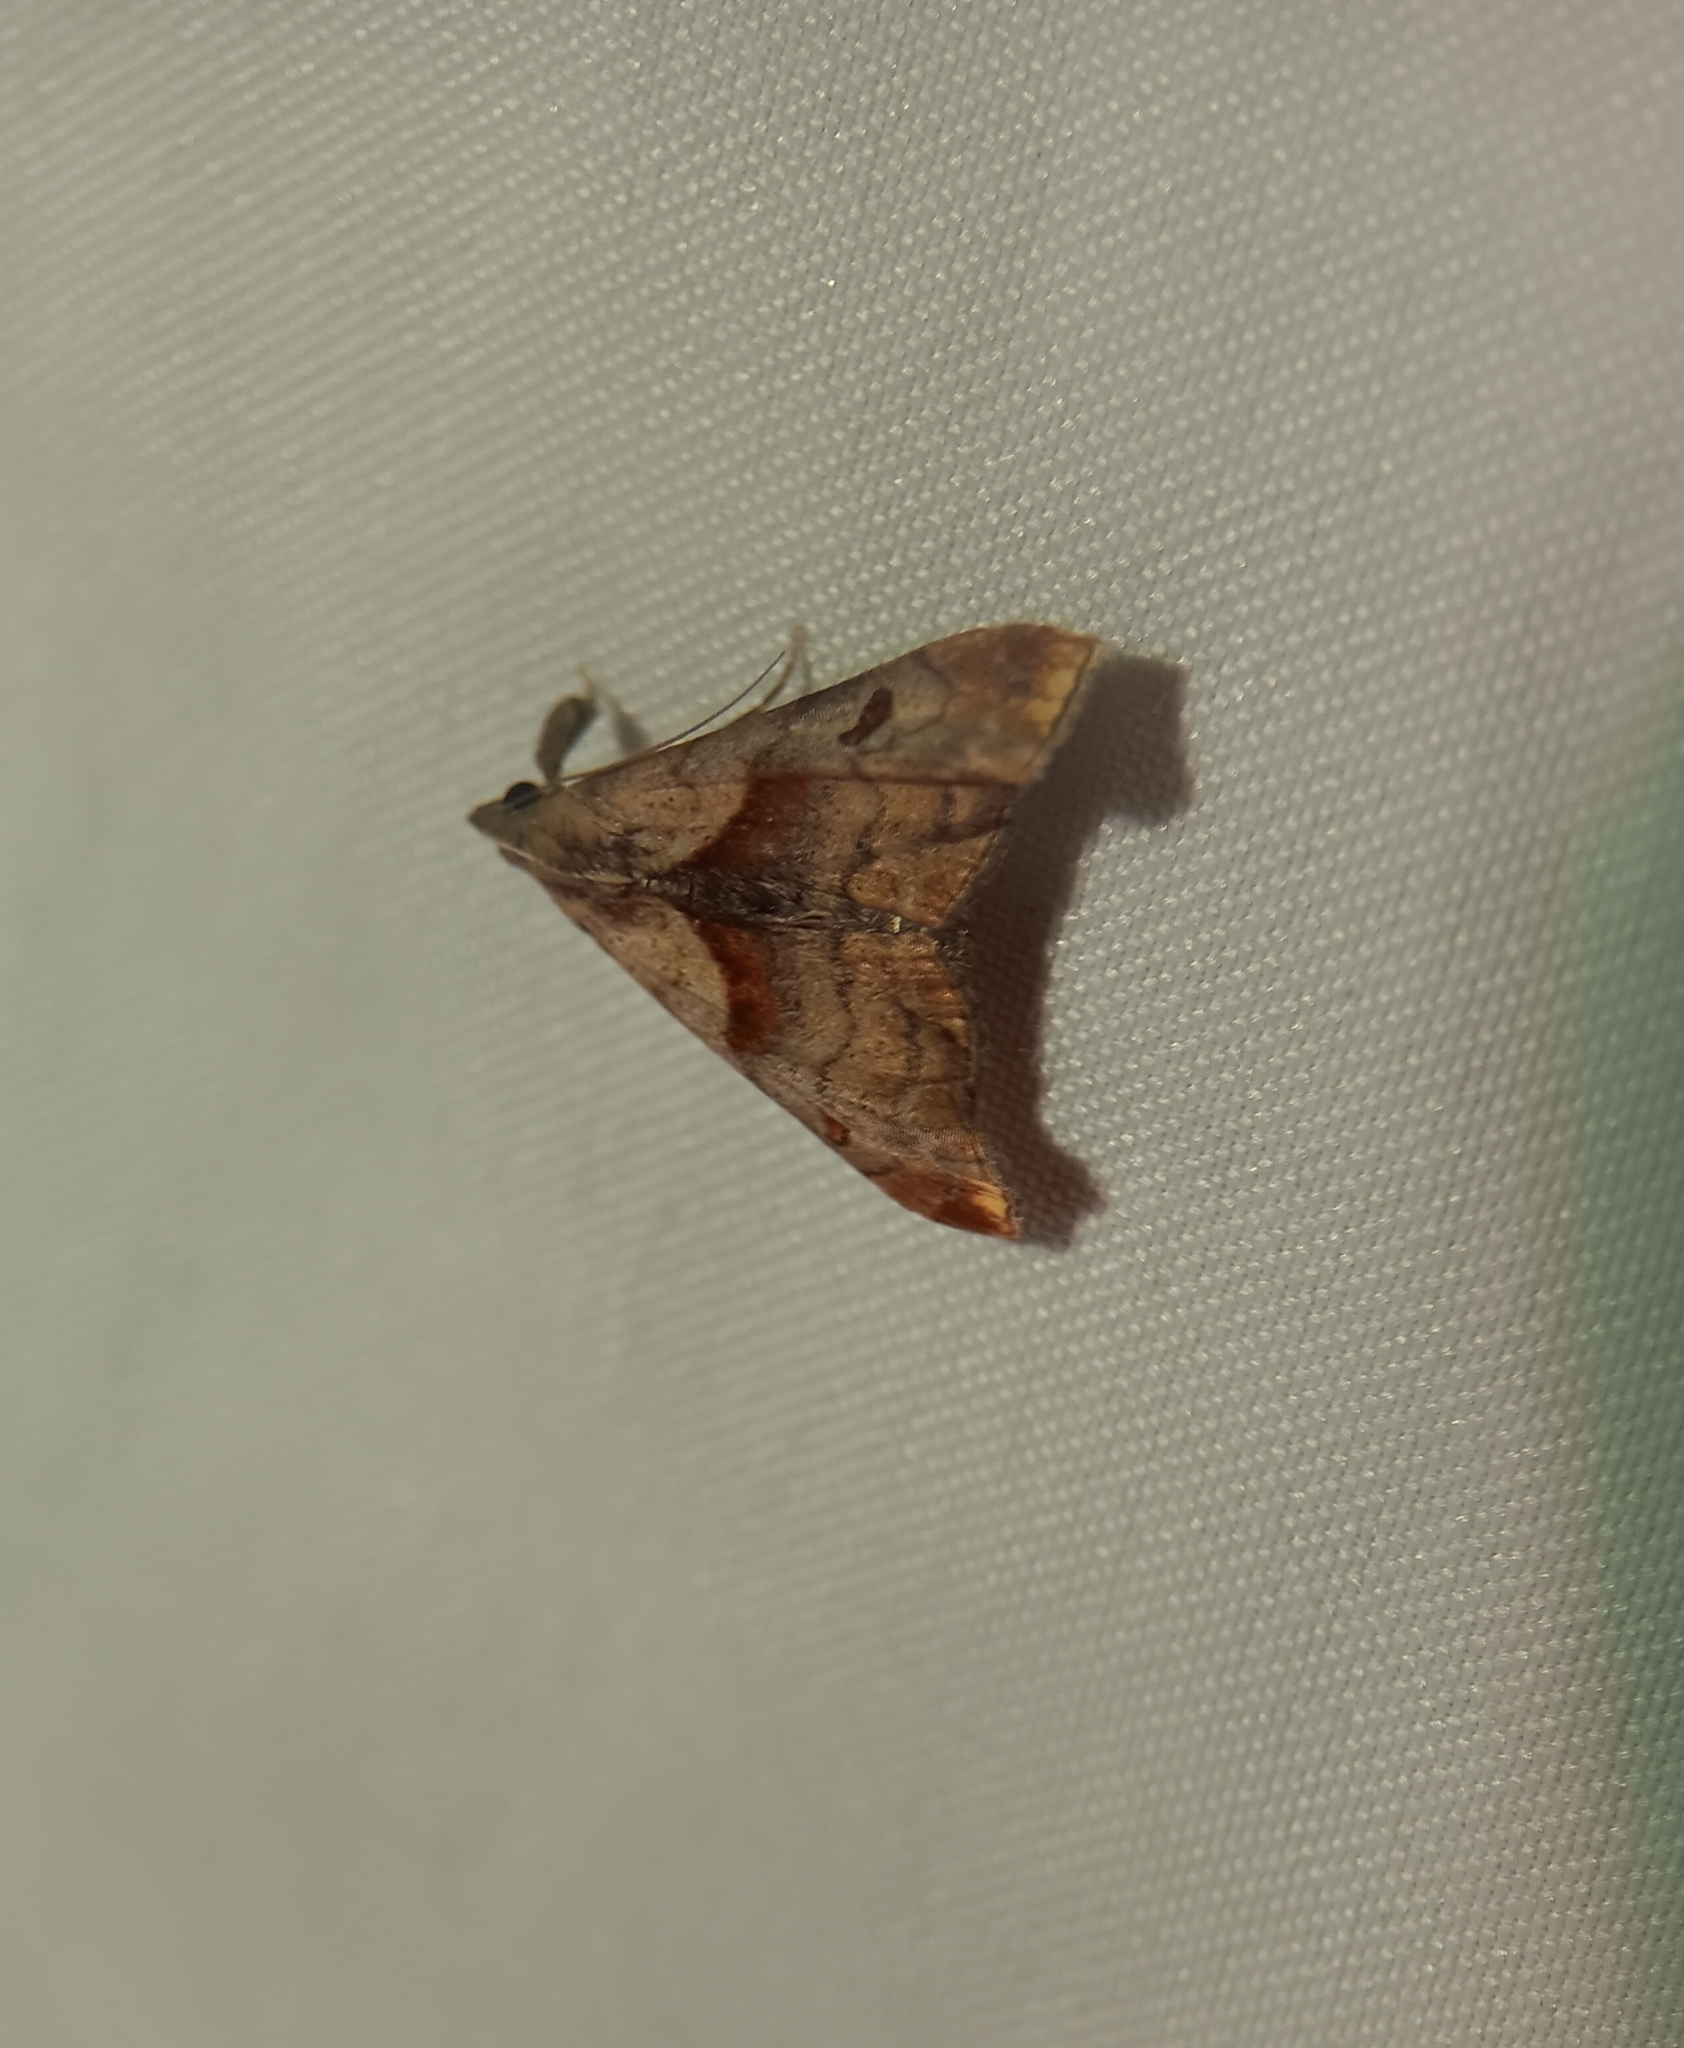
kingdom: Animalia
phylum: Arthropoda
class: Insecta
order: Lepidoptera
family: Erebidae
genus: Palthis
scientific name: Palthis angulalis
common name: Dark-spotted palthis moth
